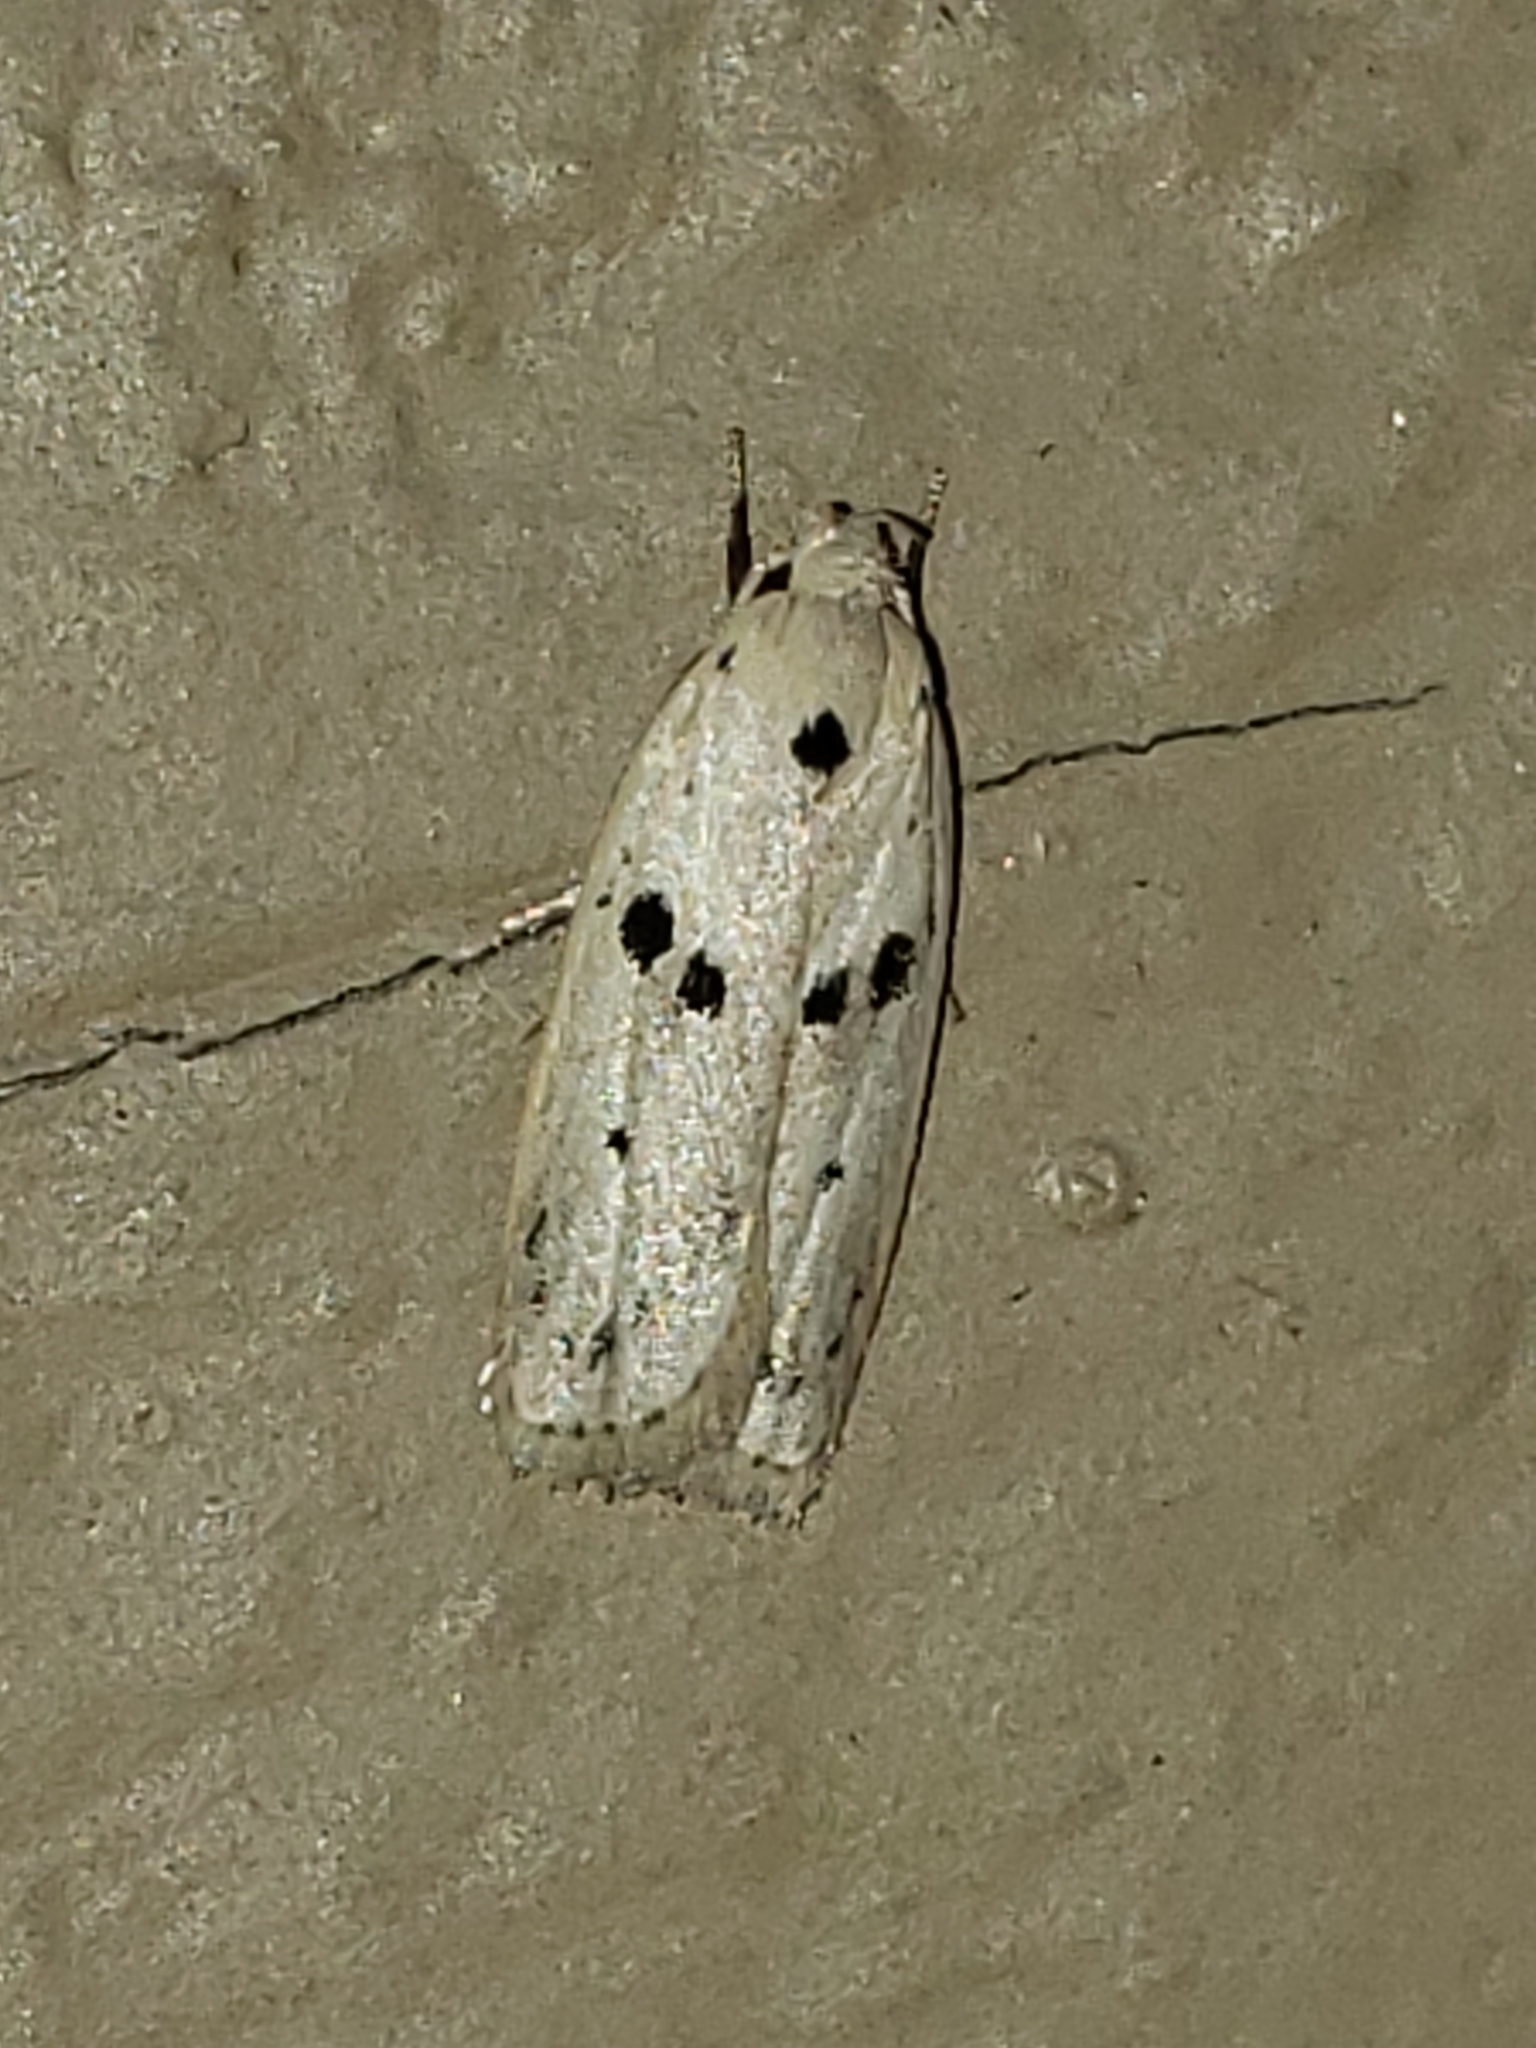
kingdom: Animalia
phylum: Arthropoda
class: Insecta
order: Lepidoptera
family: Peleopodidae
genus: Scythropiodes
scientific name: Scythropiodes issikii
